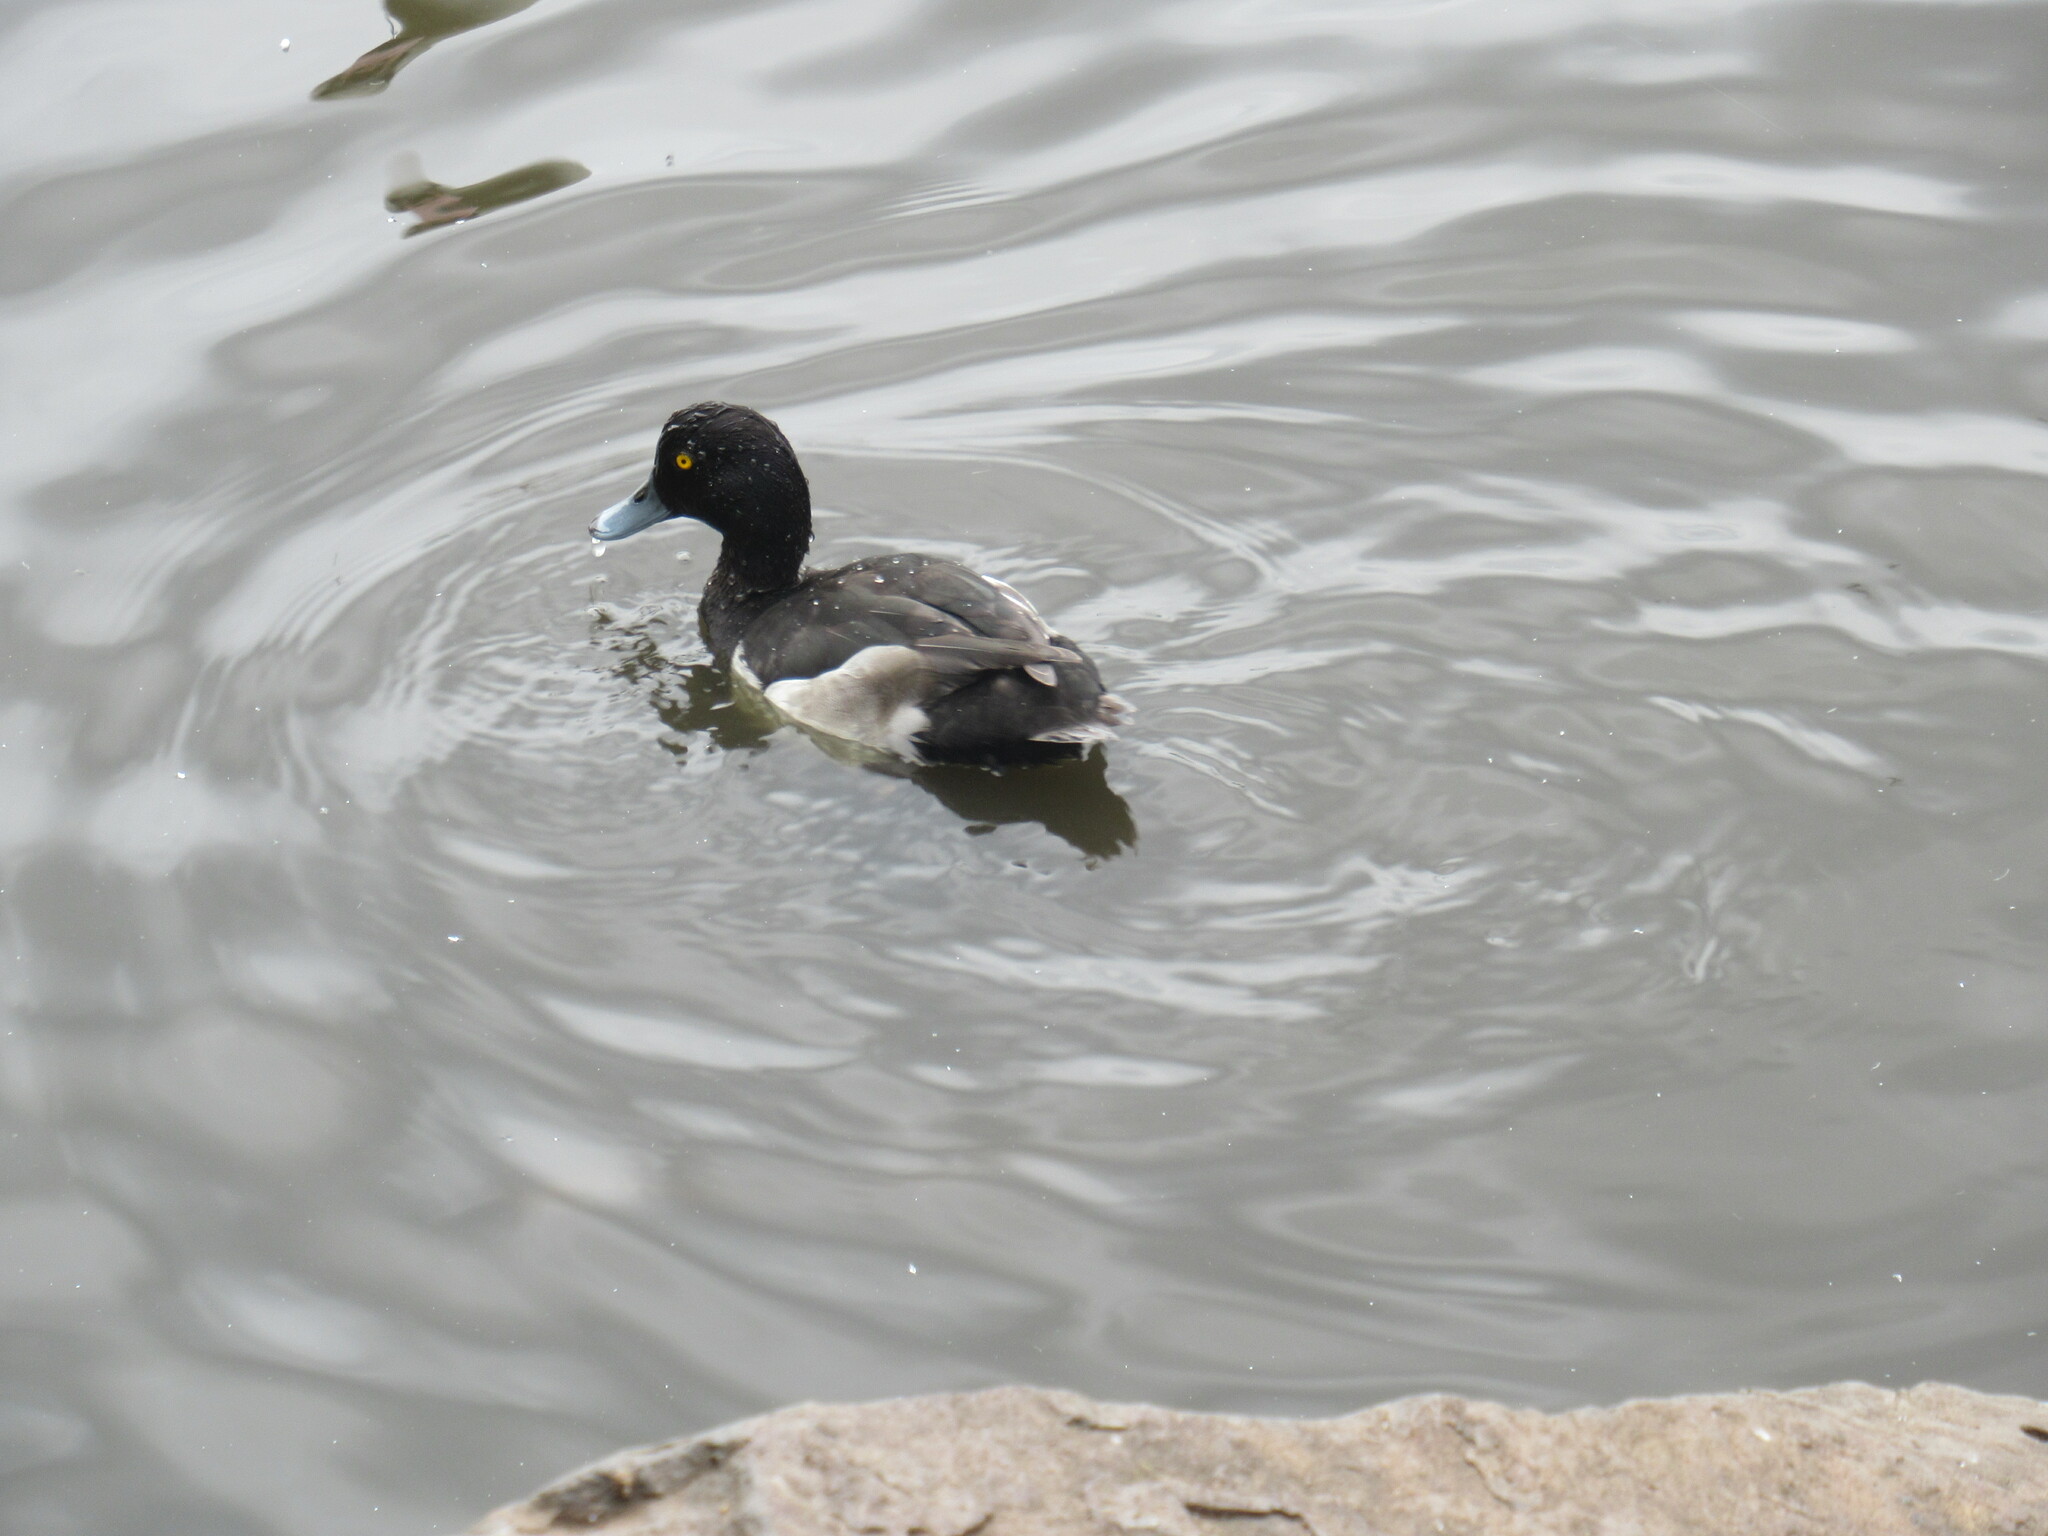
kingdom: Animalia
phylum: Chordata
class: Aves
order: Anseriformes
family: Anatidae
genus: Aythya
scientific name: Aythya fuligula
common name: Tufted duck
